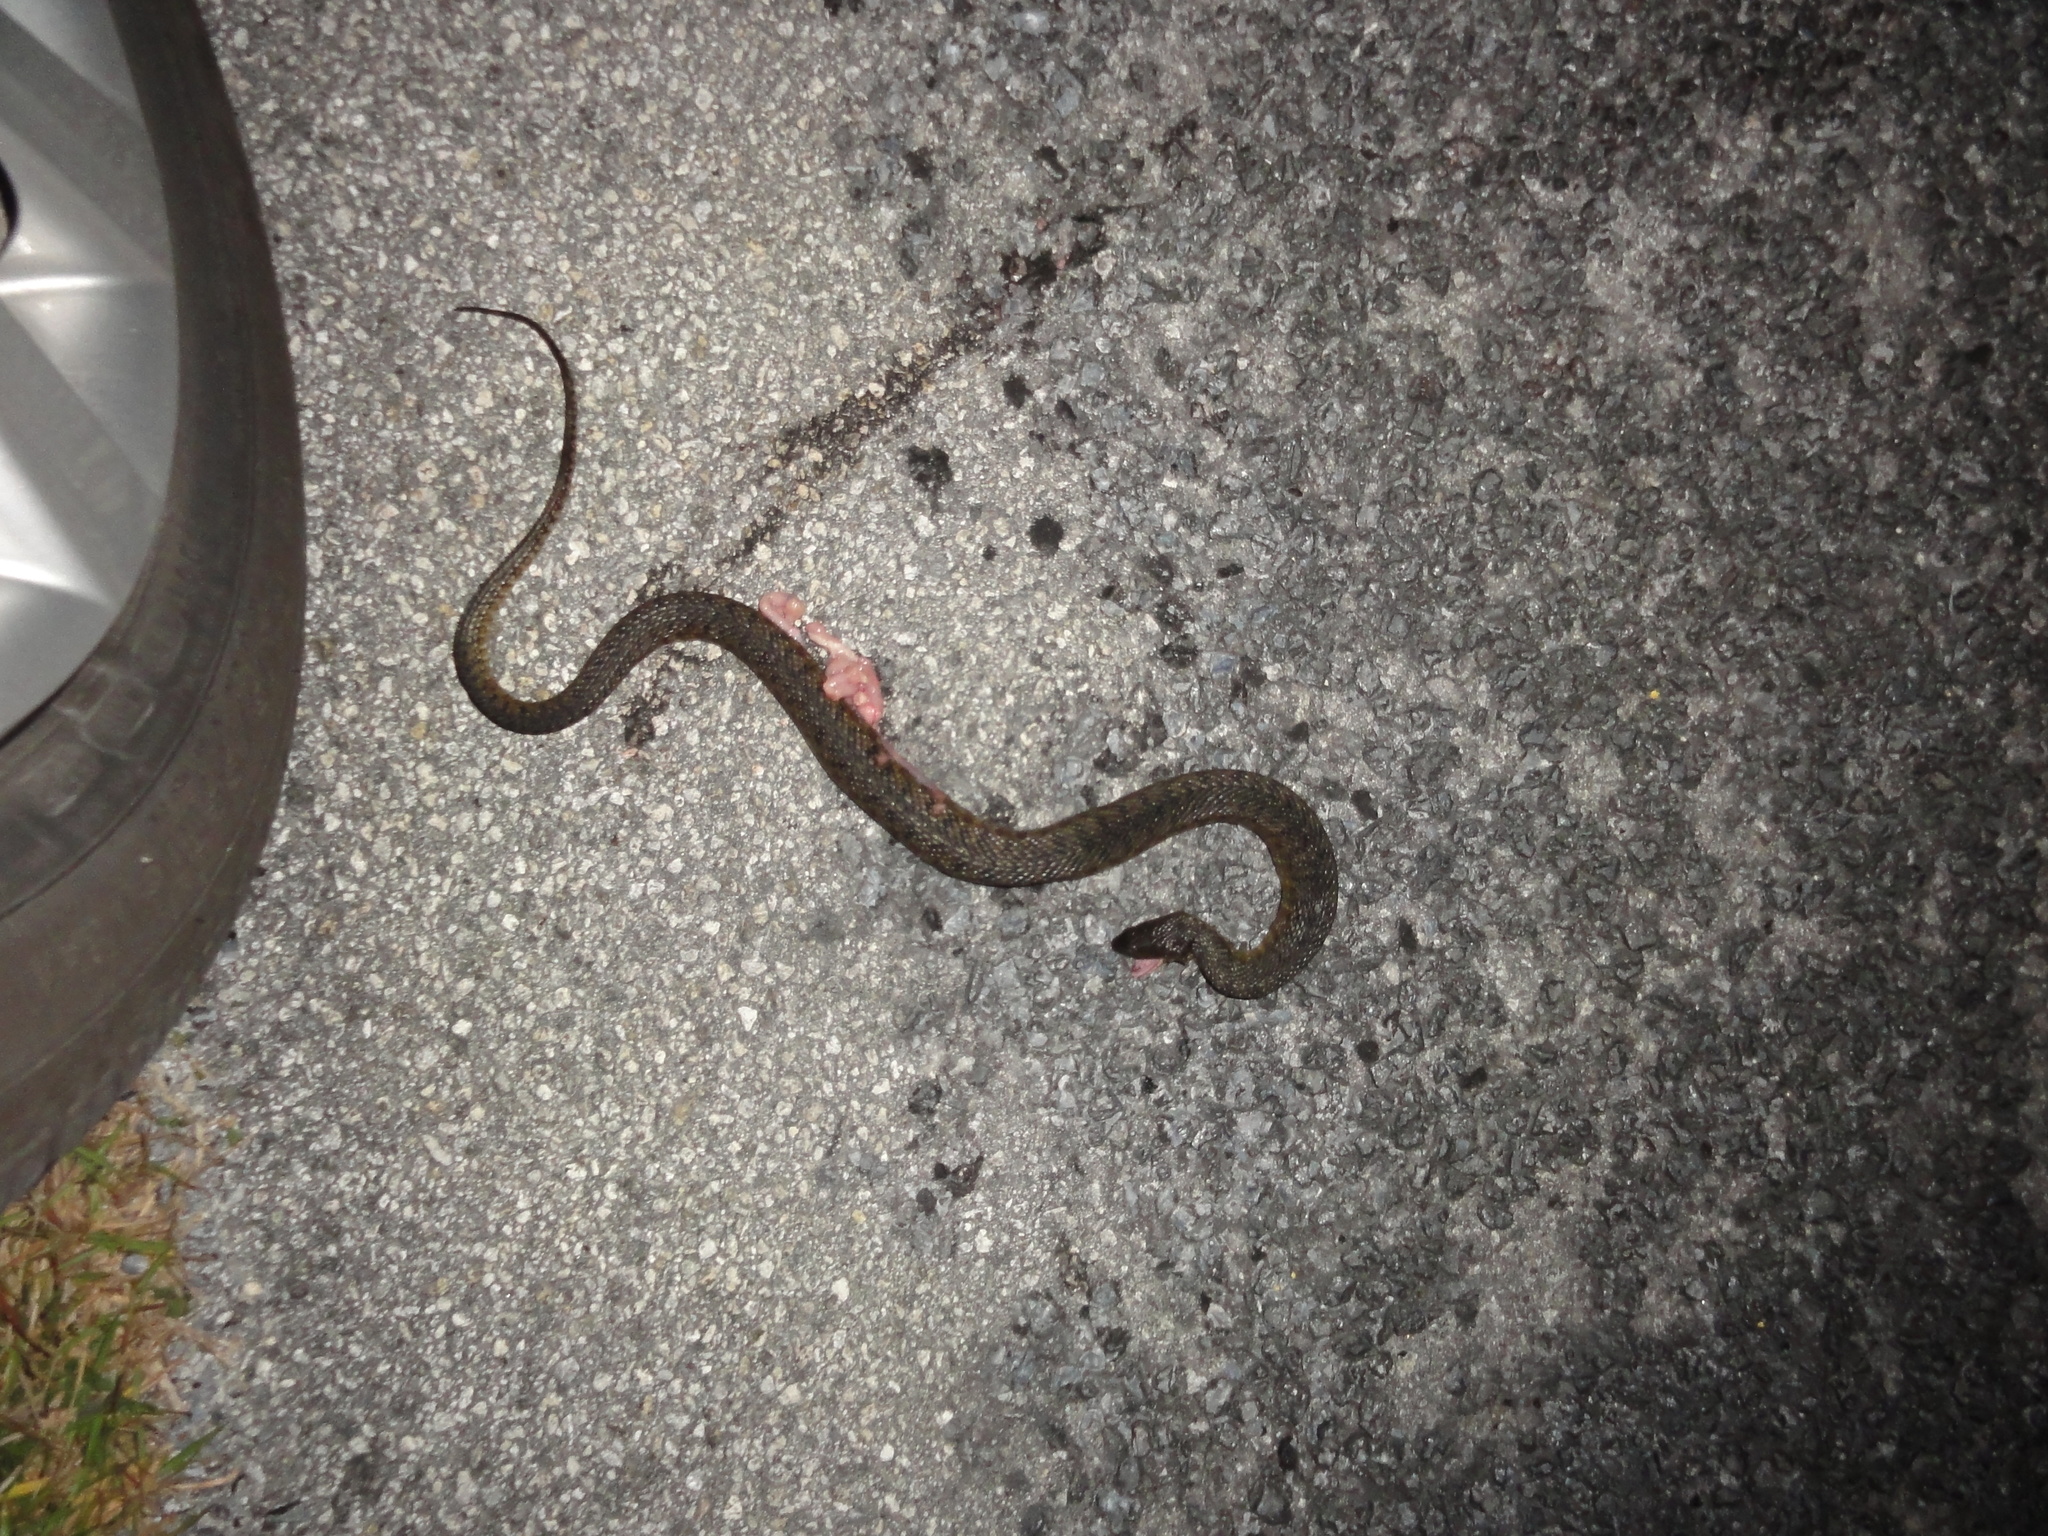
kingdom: Animalia
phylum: Chordata
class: Squamata
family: Colubridae
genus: Nerodia
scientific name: Nerodia floridana
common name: Florida green watersnake
